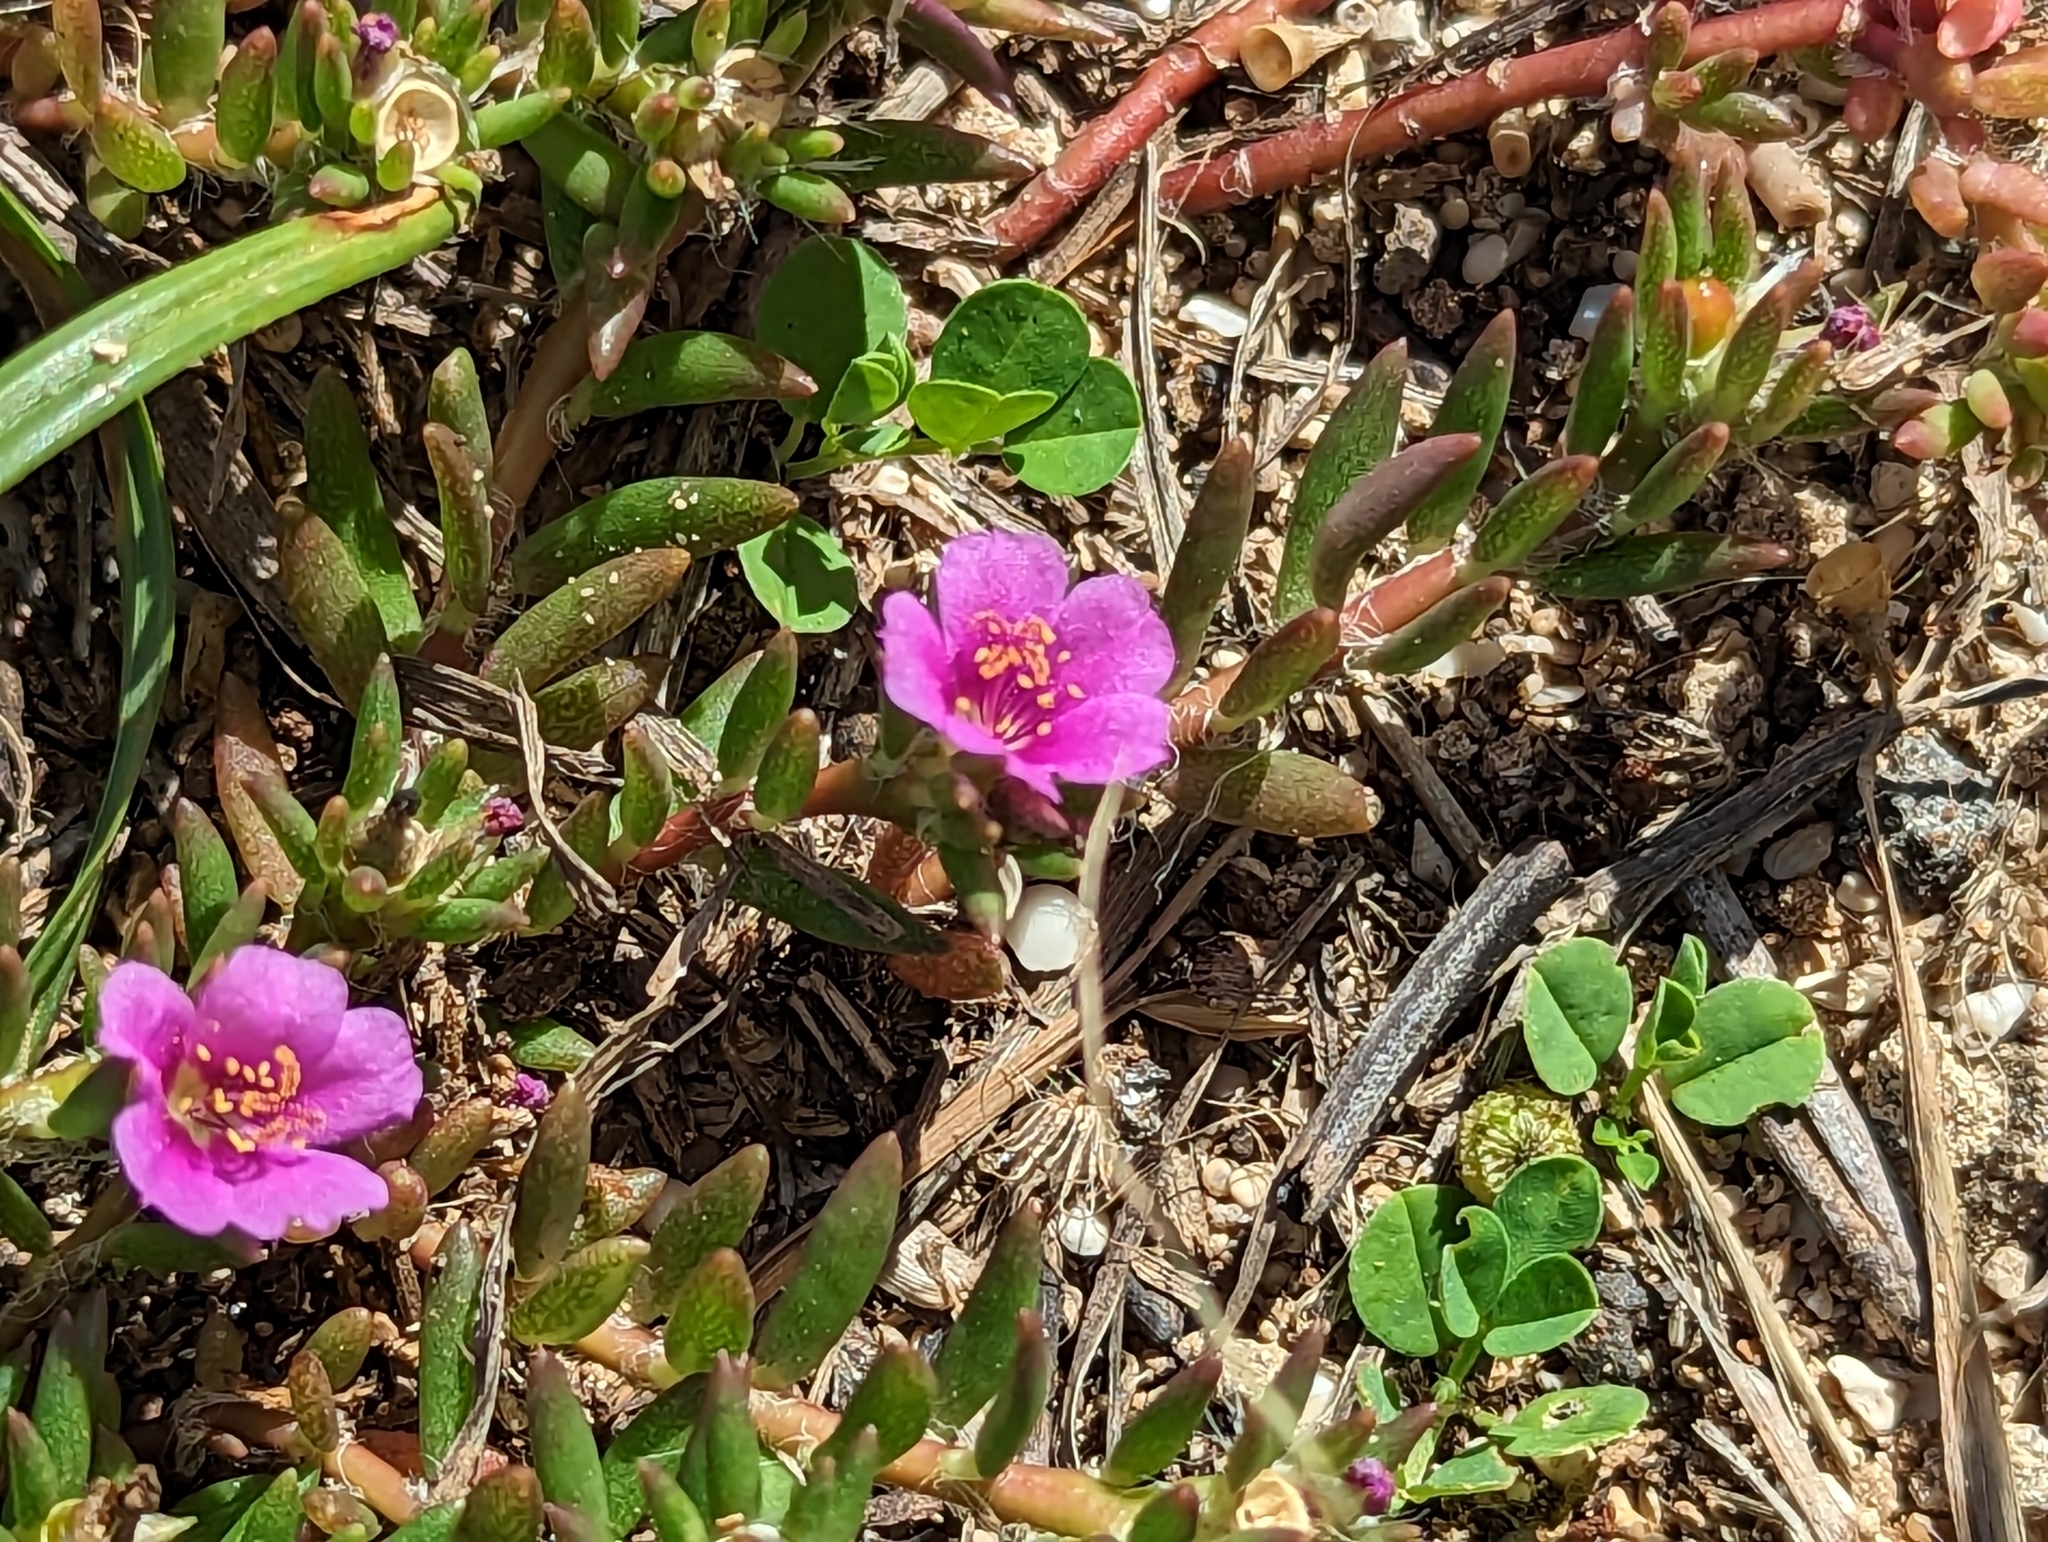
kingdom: Plantae
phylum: Tracheophyta
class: Magnoliopsida
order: Caryophyllales
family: Portulacaceae
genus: Portulaca
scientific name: Portulaca pilosa
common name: Kiss me quick
